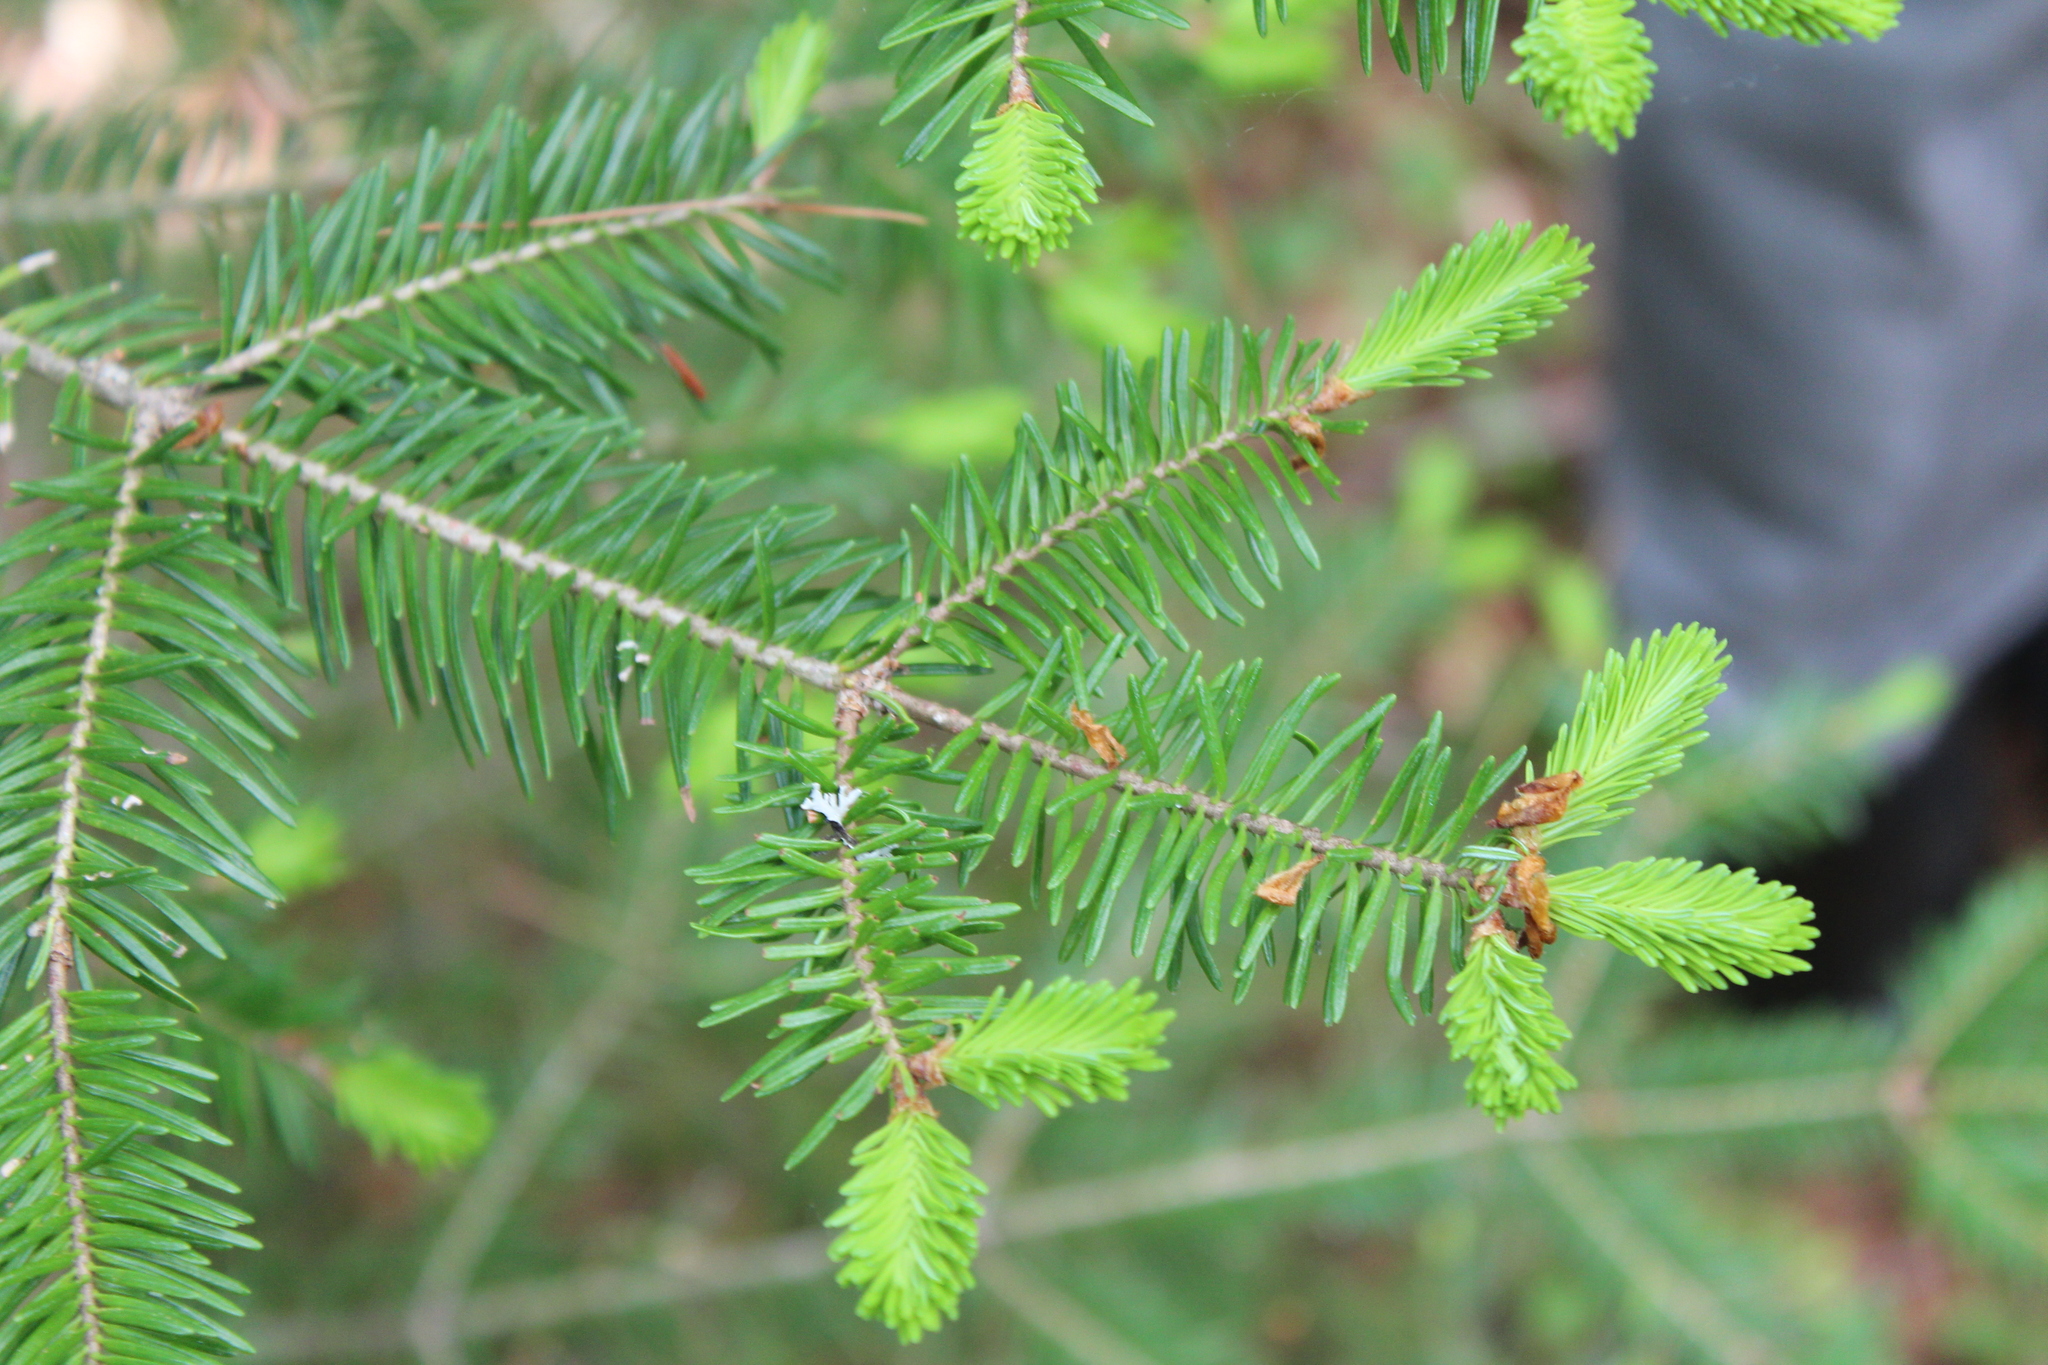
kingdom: Plantae
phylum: Tracheophyta
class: Pinopsida
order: Pinales
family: Pinaceae
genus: Abies
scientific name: Abies balsamea
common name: Balsam fir
